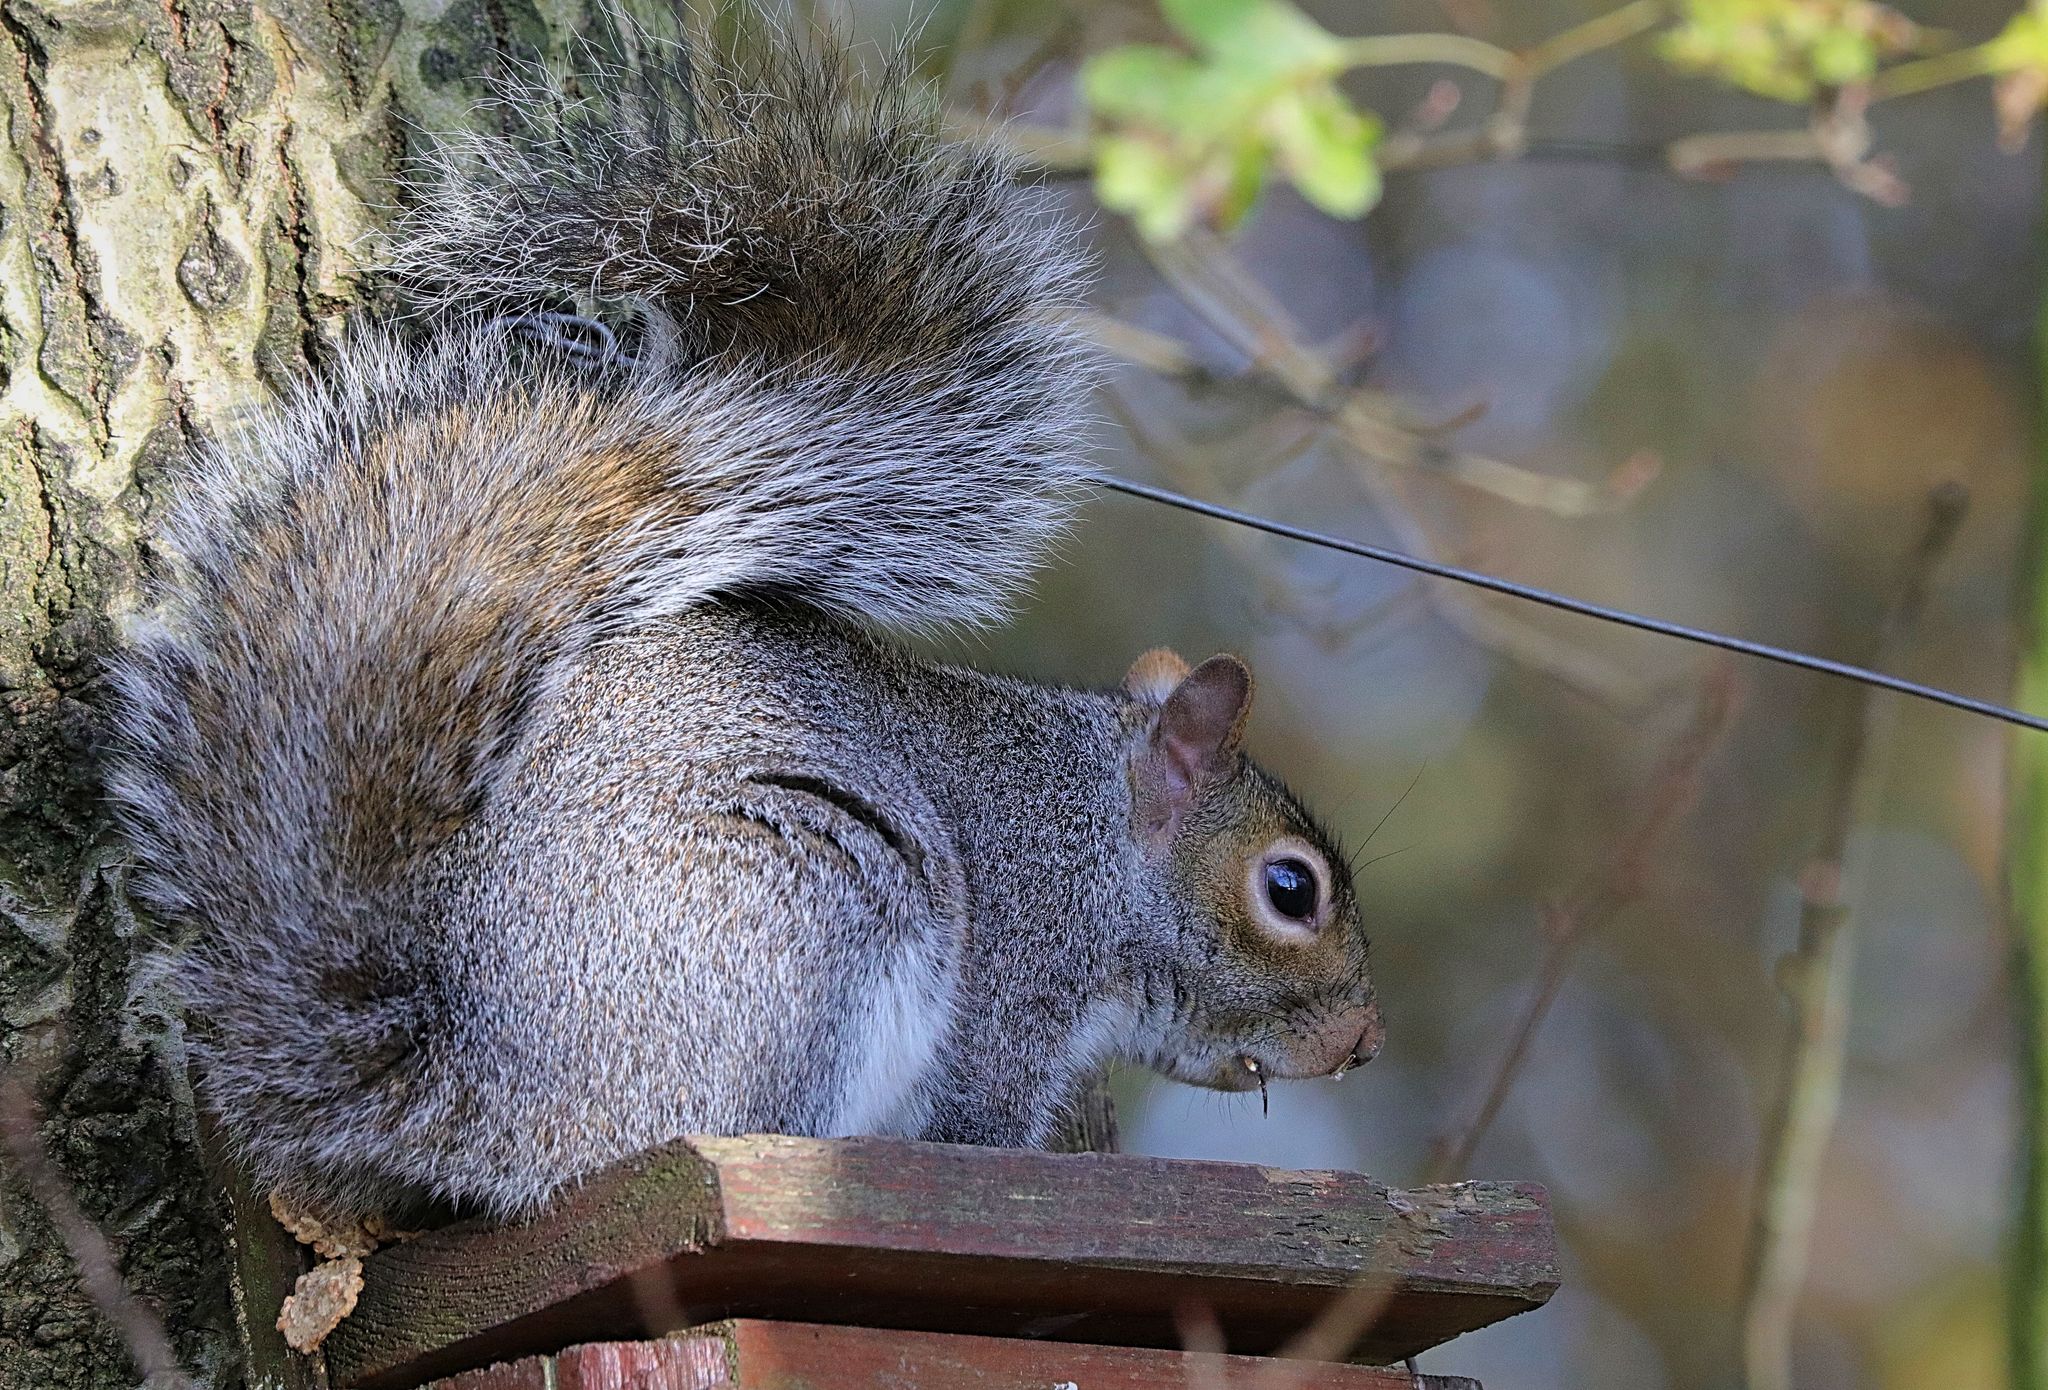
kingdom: Animalia
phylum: Chordata
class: Mammalia
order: Rodentia
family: Sciuridae
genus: Sciurus
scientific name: Sciurus carolinensis
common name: Eastern gray squirrel
